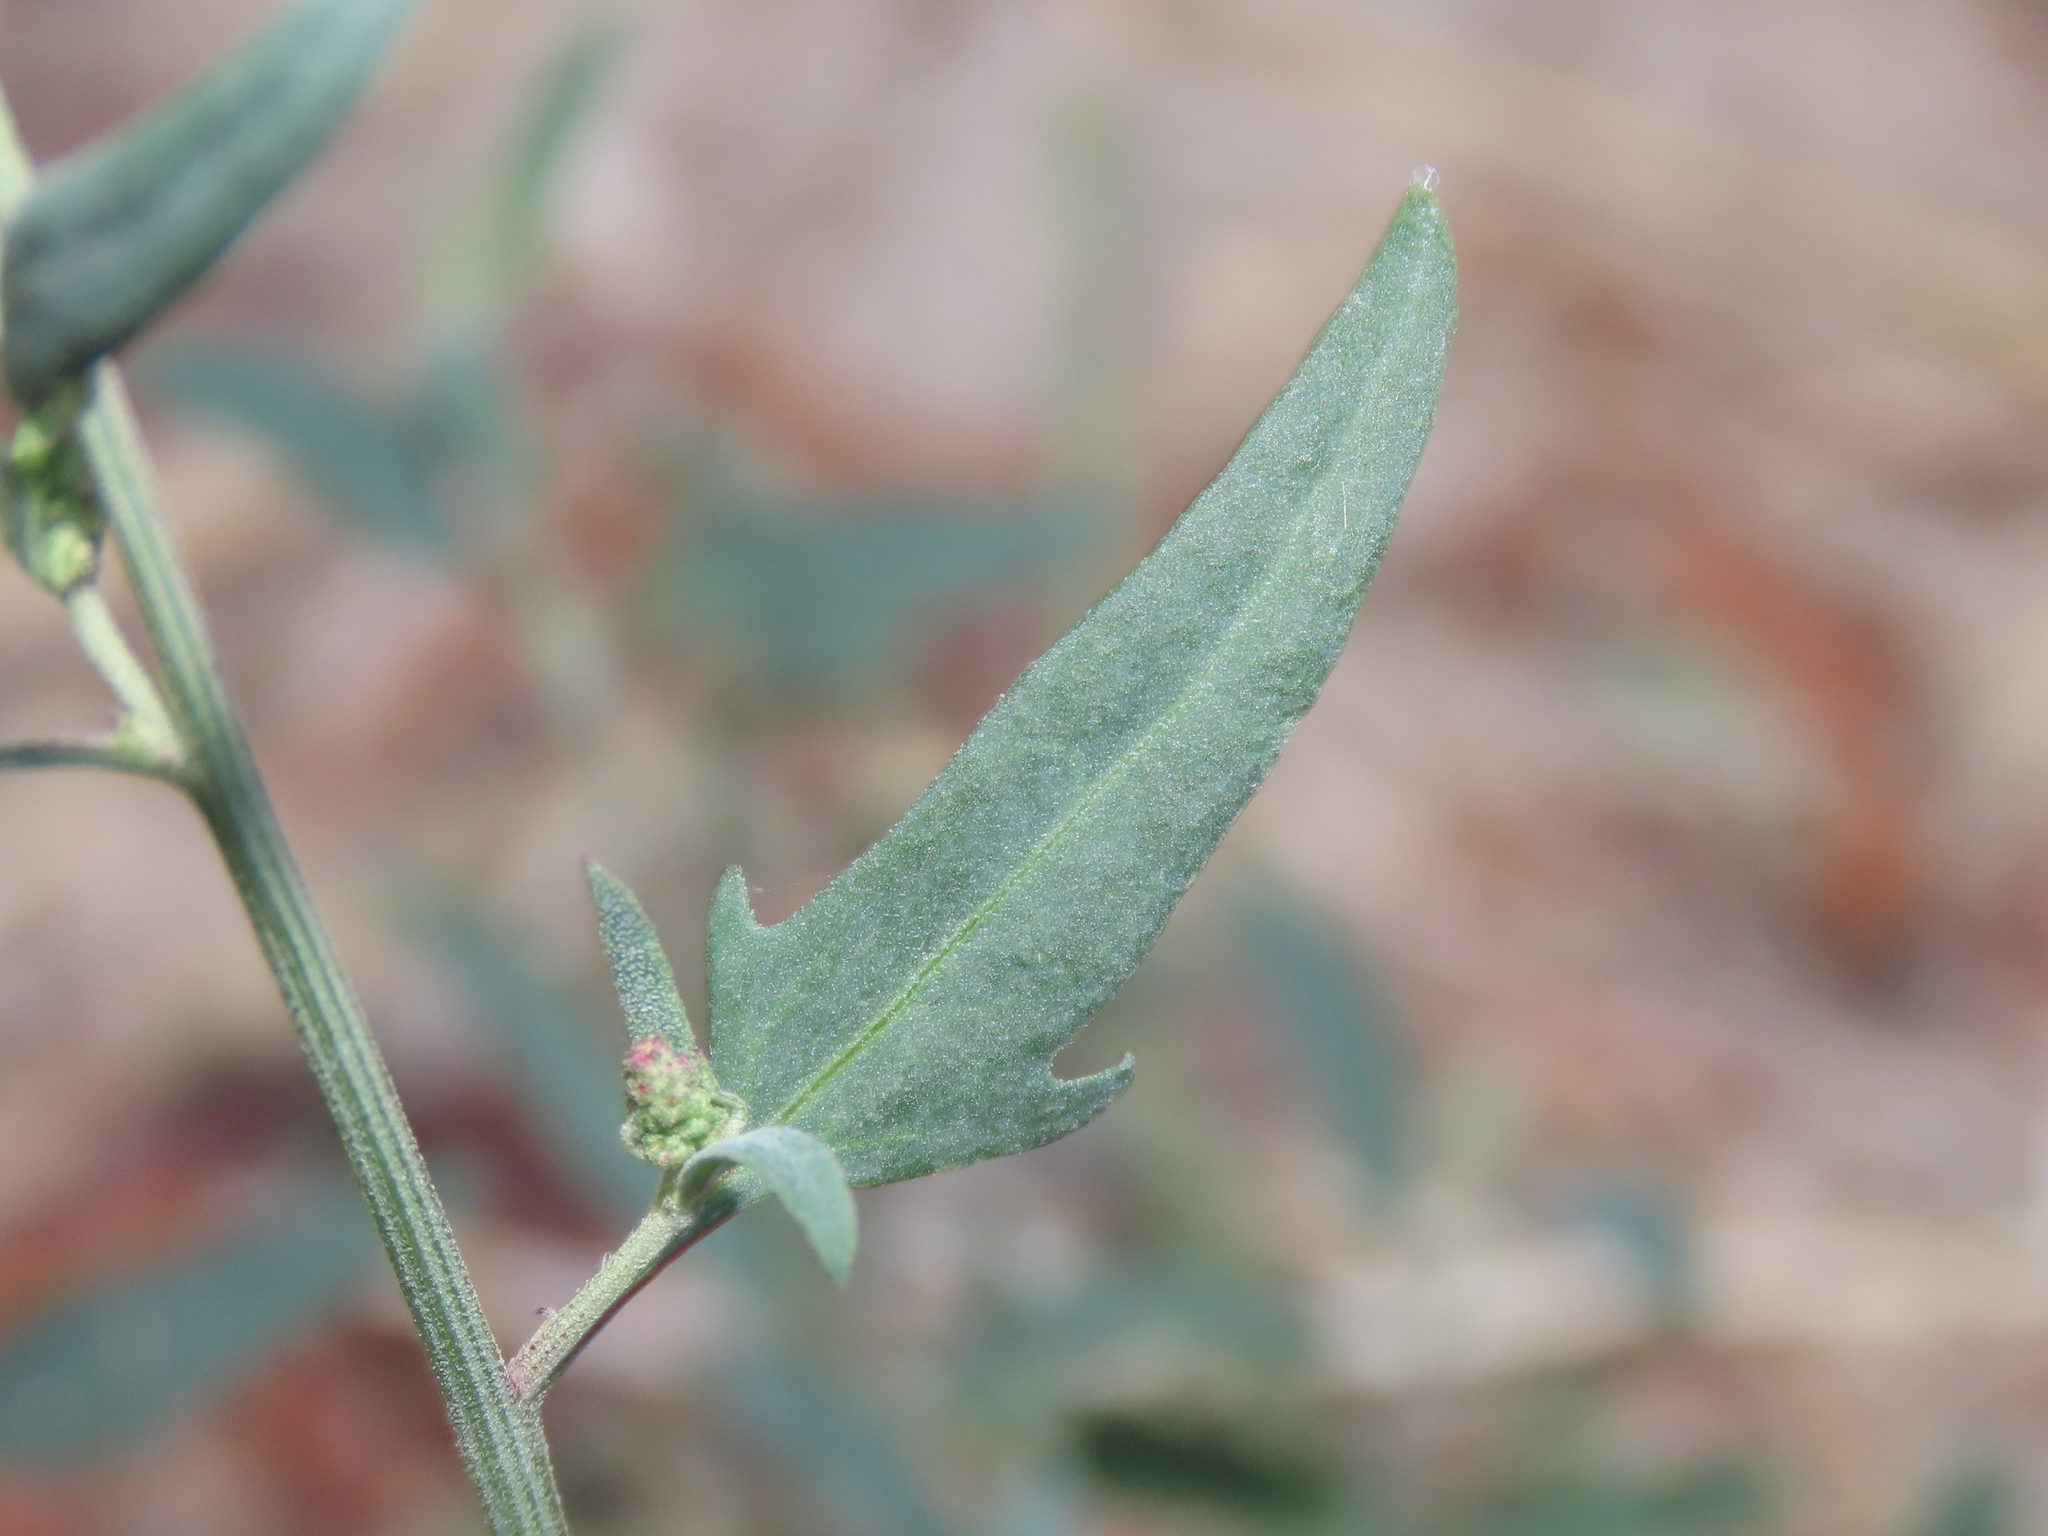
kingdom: Plantae
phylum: Tracheophyta
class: Magnoliopsida
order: Caryophyllales
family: Amaranthaceae
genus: Atriplex
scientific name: Atriplex patula
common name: Common orache
